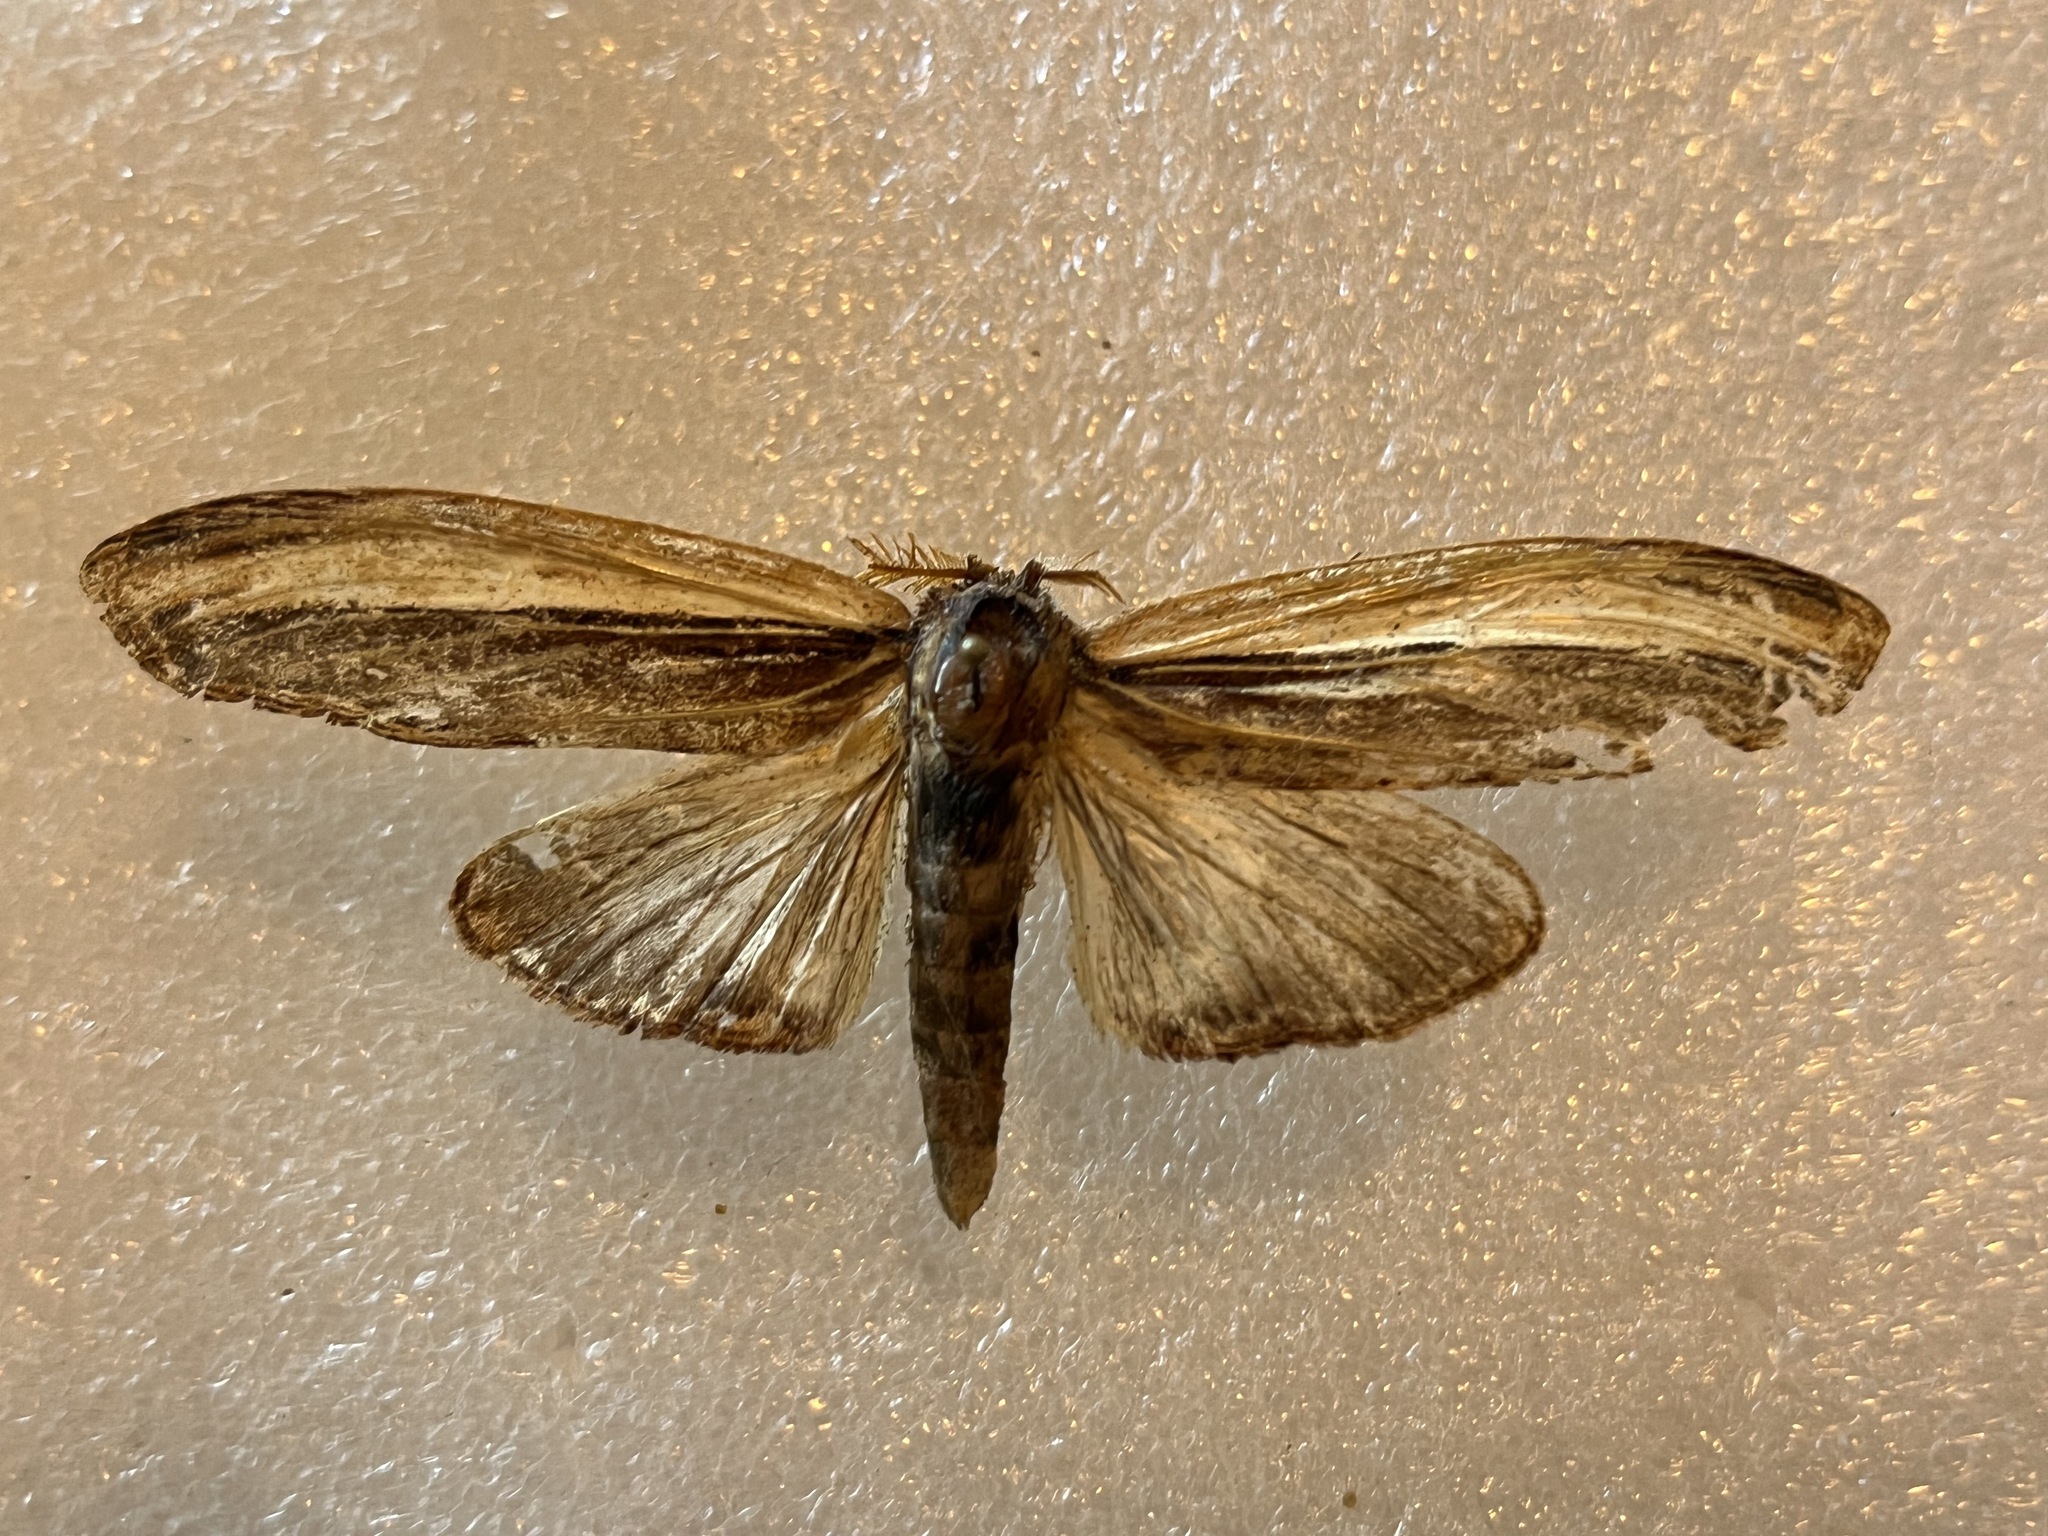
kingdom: Animalia
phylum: Arthropoda
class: Insecta
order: Lepidoptera
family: Notodontidae
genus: Truncaptera
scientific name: Truncaptera
